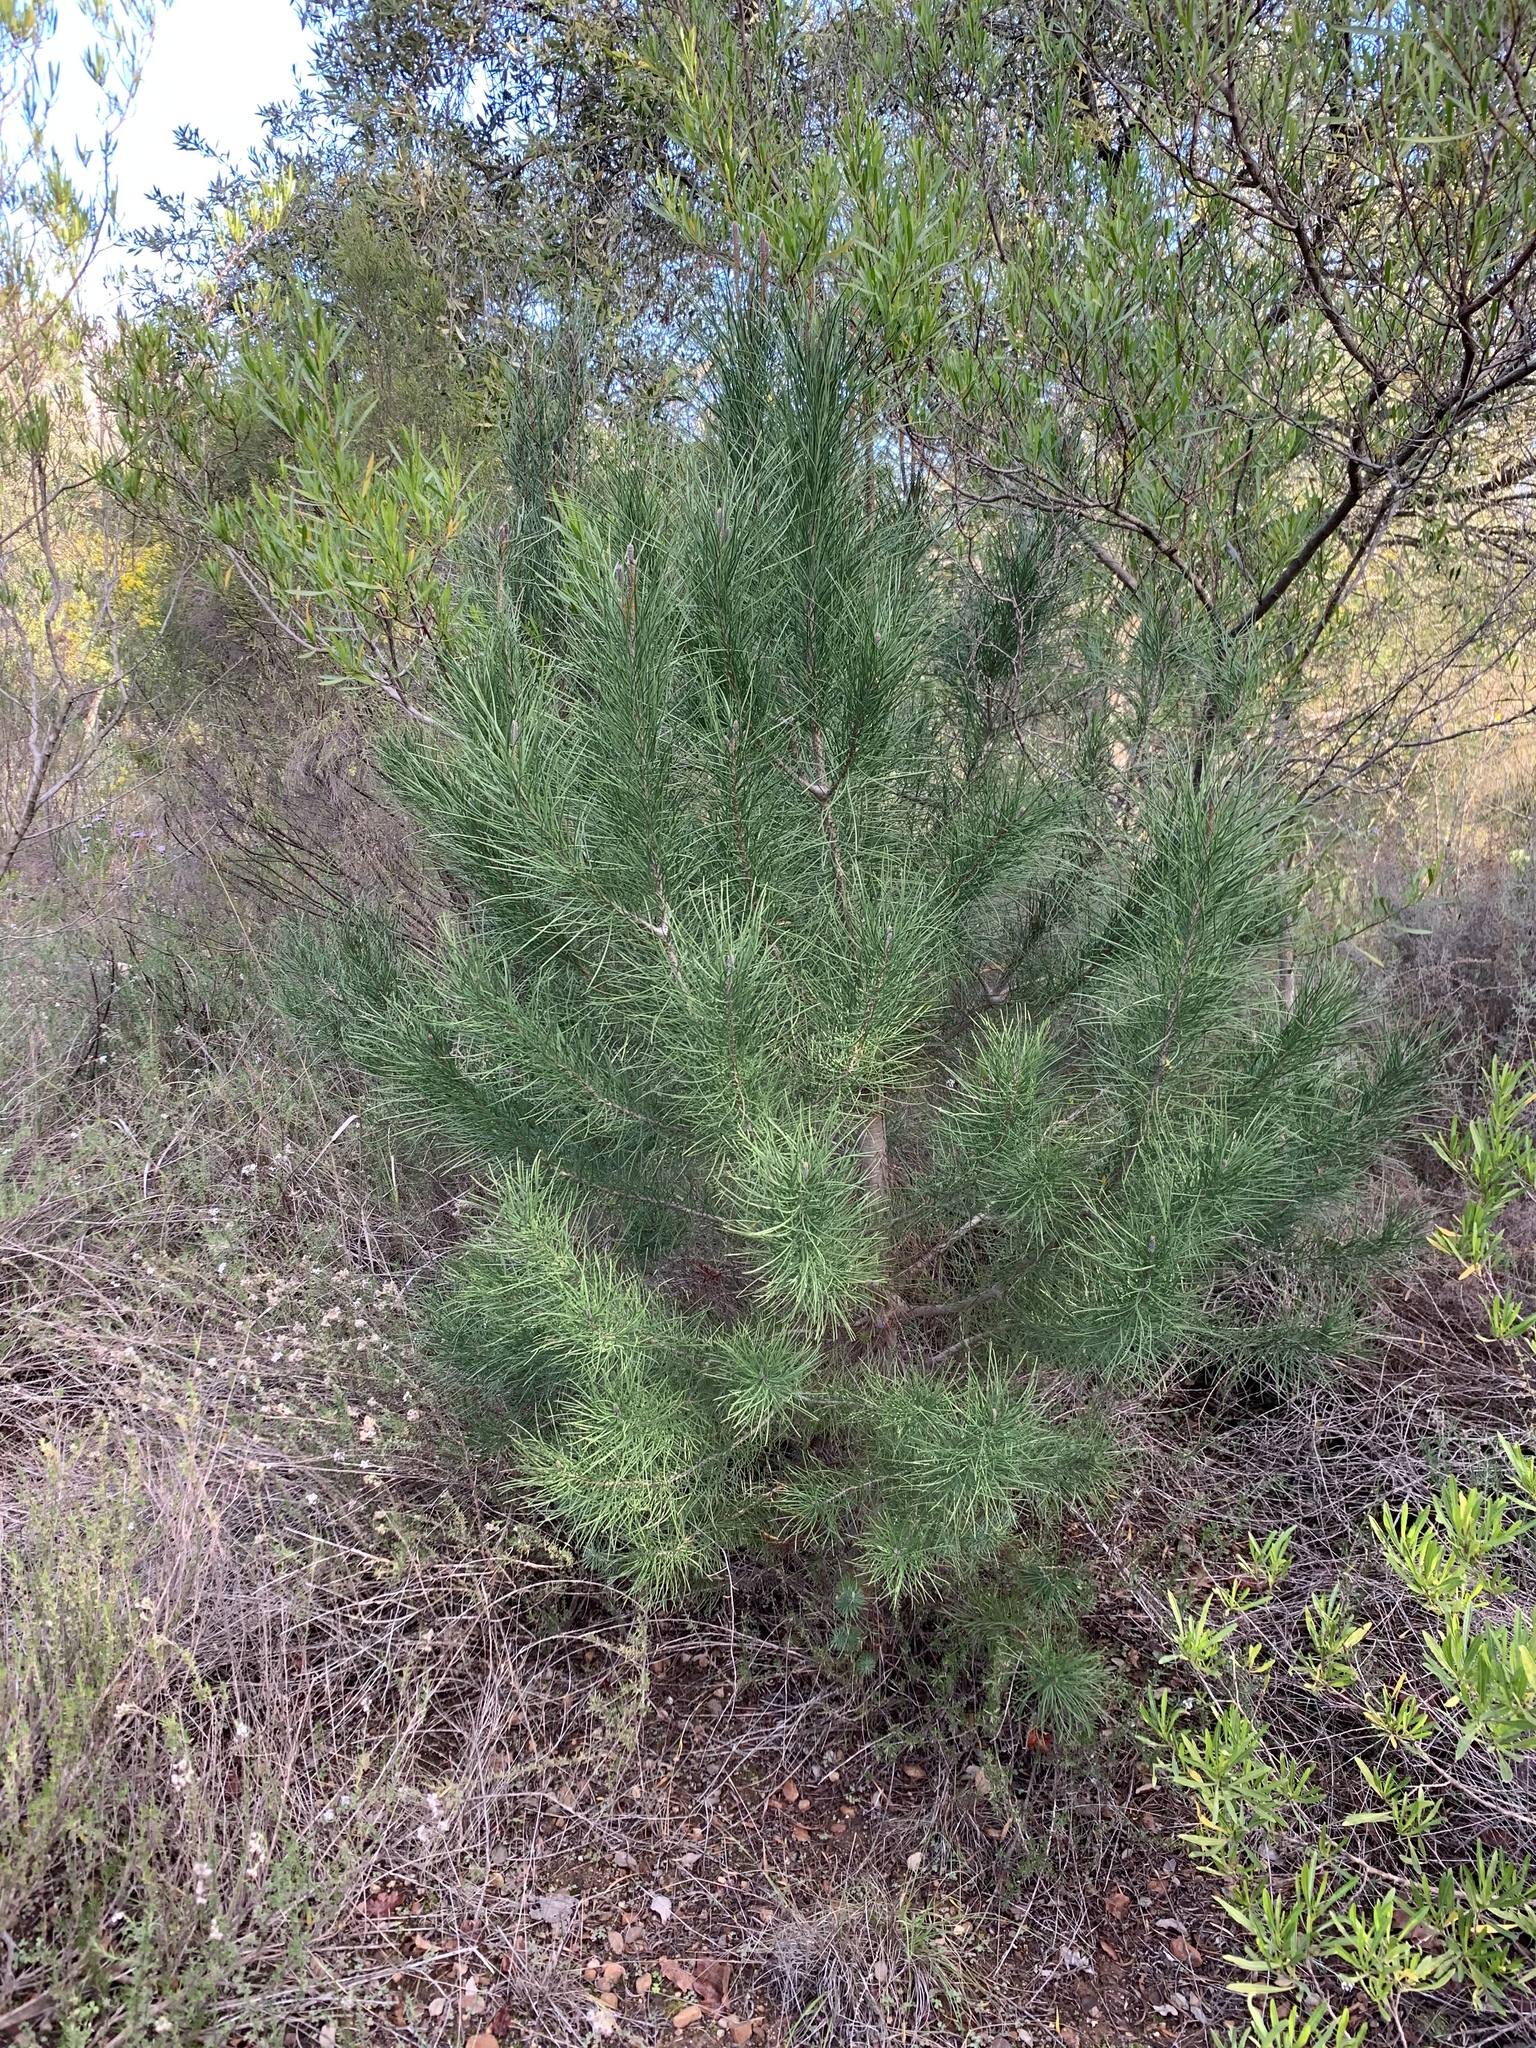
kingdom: Plantae
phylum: Tracheophyta
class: Pinopsida
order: Pinales
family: Pinaceae
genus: Pinus
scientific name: Pinus pinaster
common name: Maritime pine
